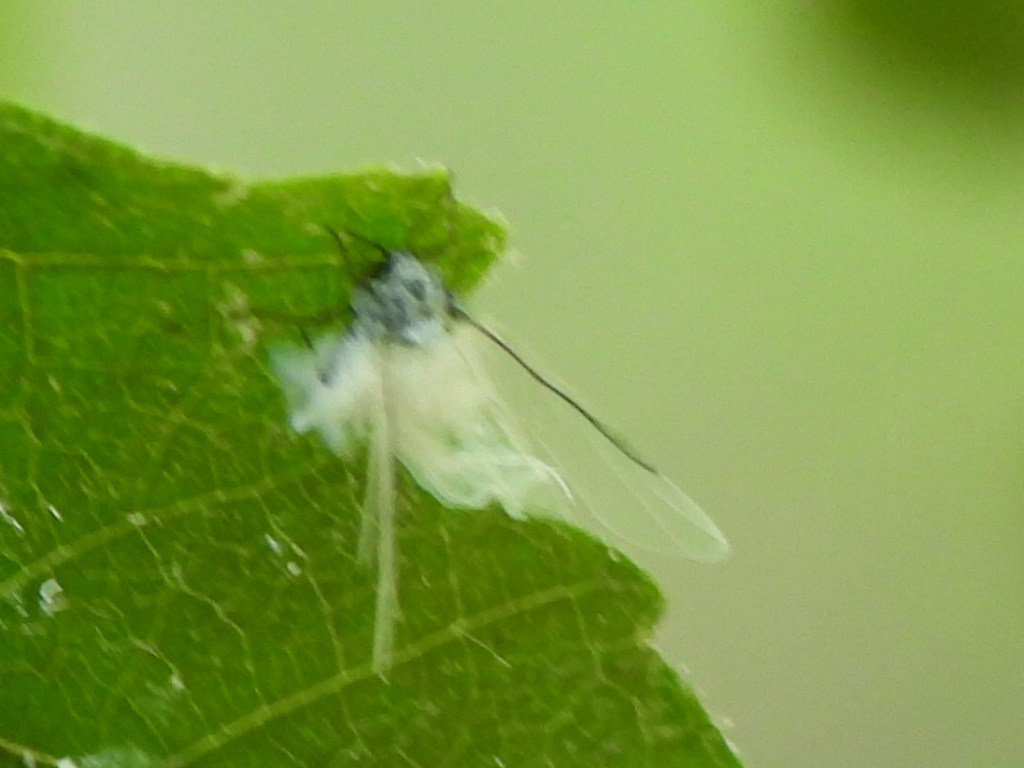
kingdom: Animalia
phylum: Arthropoda
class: Insecta
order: Hemiptera
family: Aphididae
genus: Prociphilus
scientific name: Prociphilus tessellatus
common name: Woolly alder aphid
